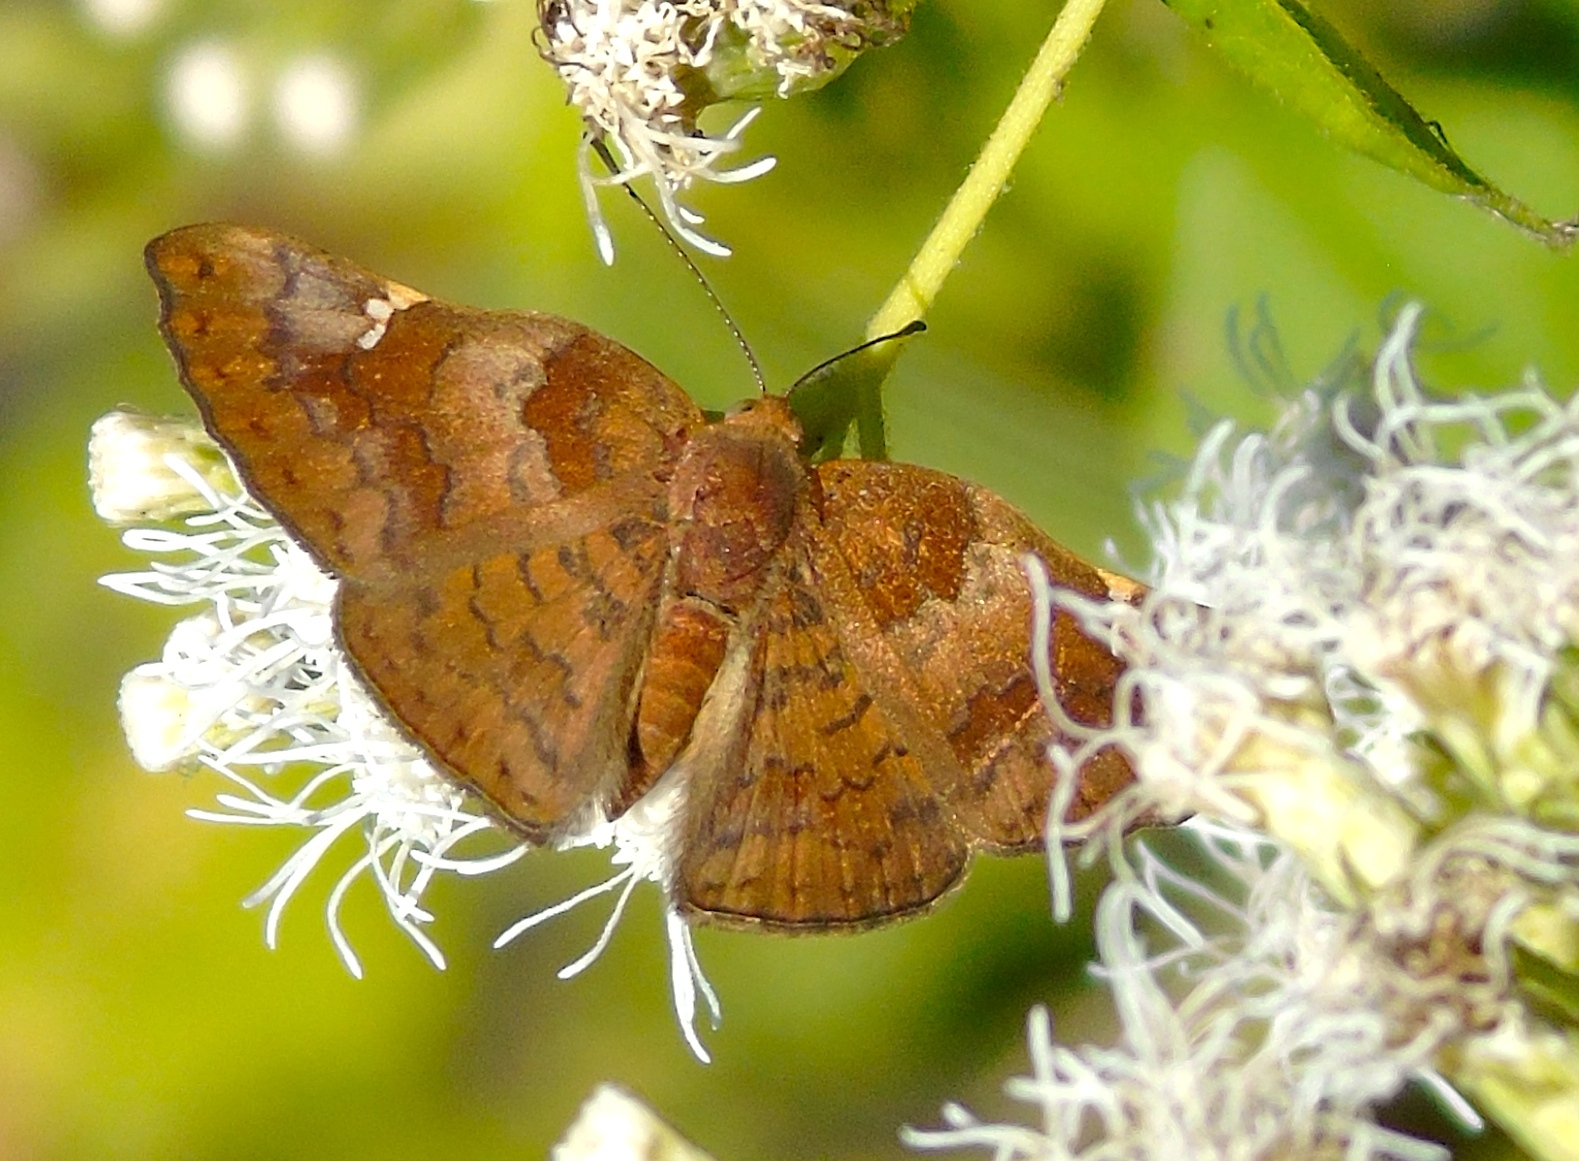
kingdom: Animalia
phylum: Arthropoda
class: Insecta
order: Lepidoptera
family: Riodinidae
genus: Curvie
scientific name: Curvie emesia
